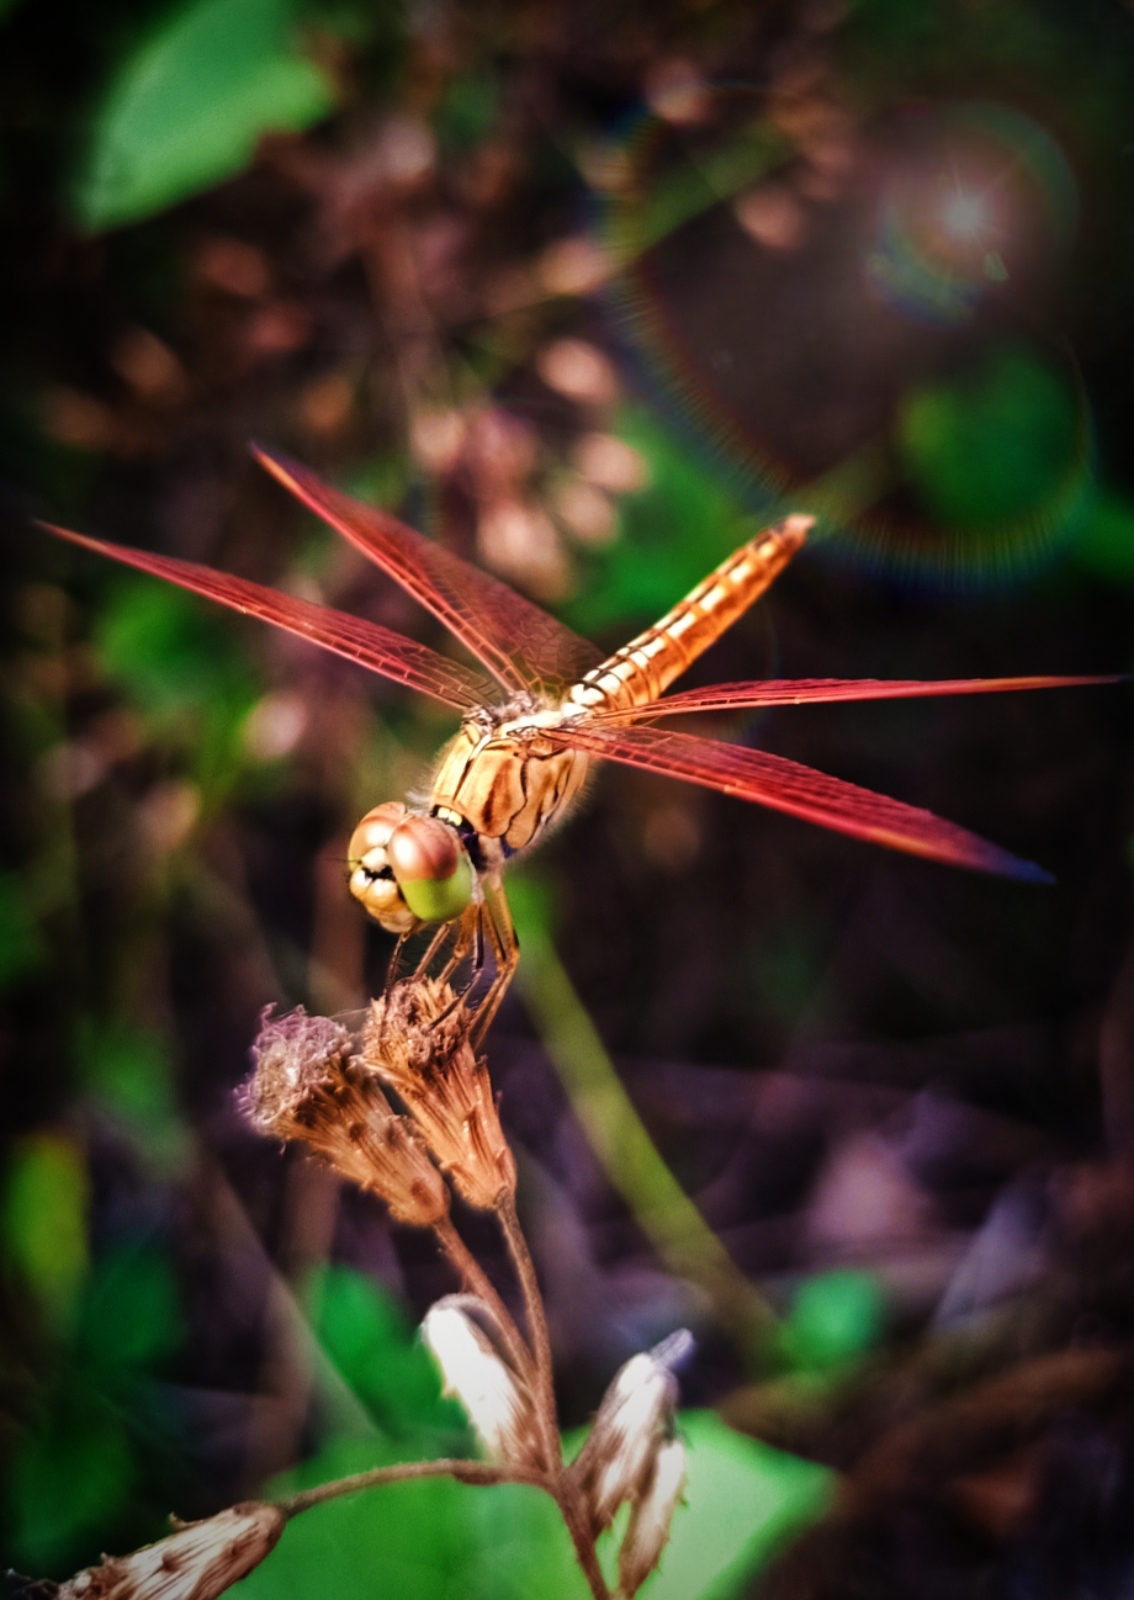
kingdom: Animalia
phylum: Arthropoda
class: Insecta
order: Odonata
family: Libellulidae
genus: Brachythemis
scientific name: Brachythemis contaminata
